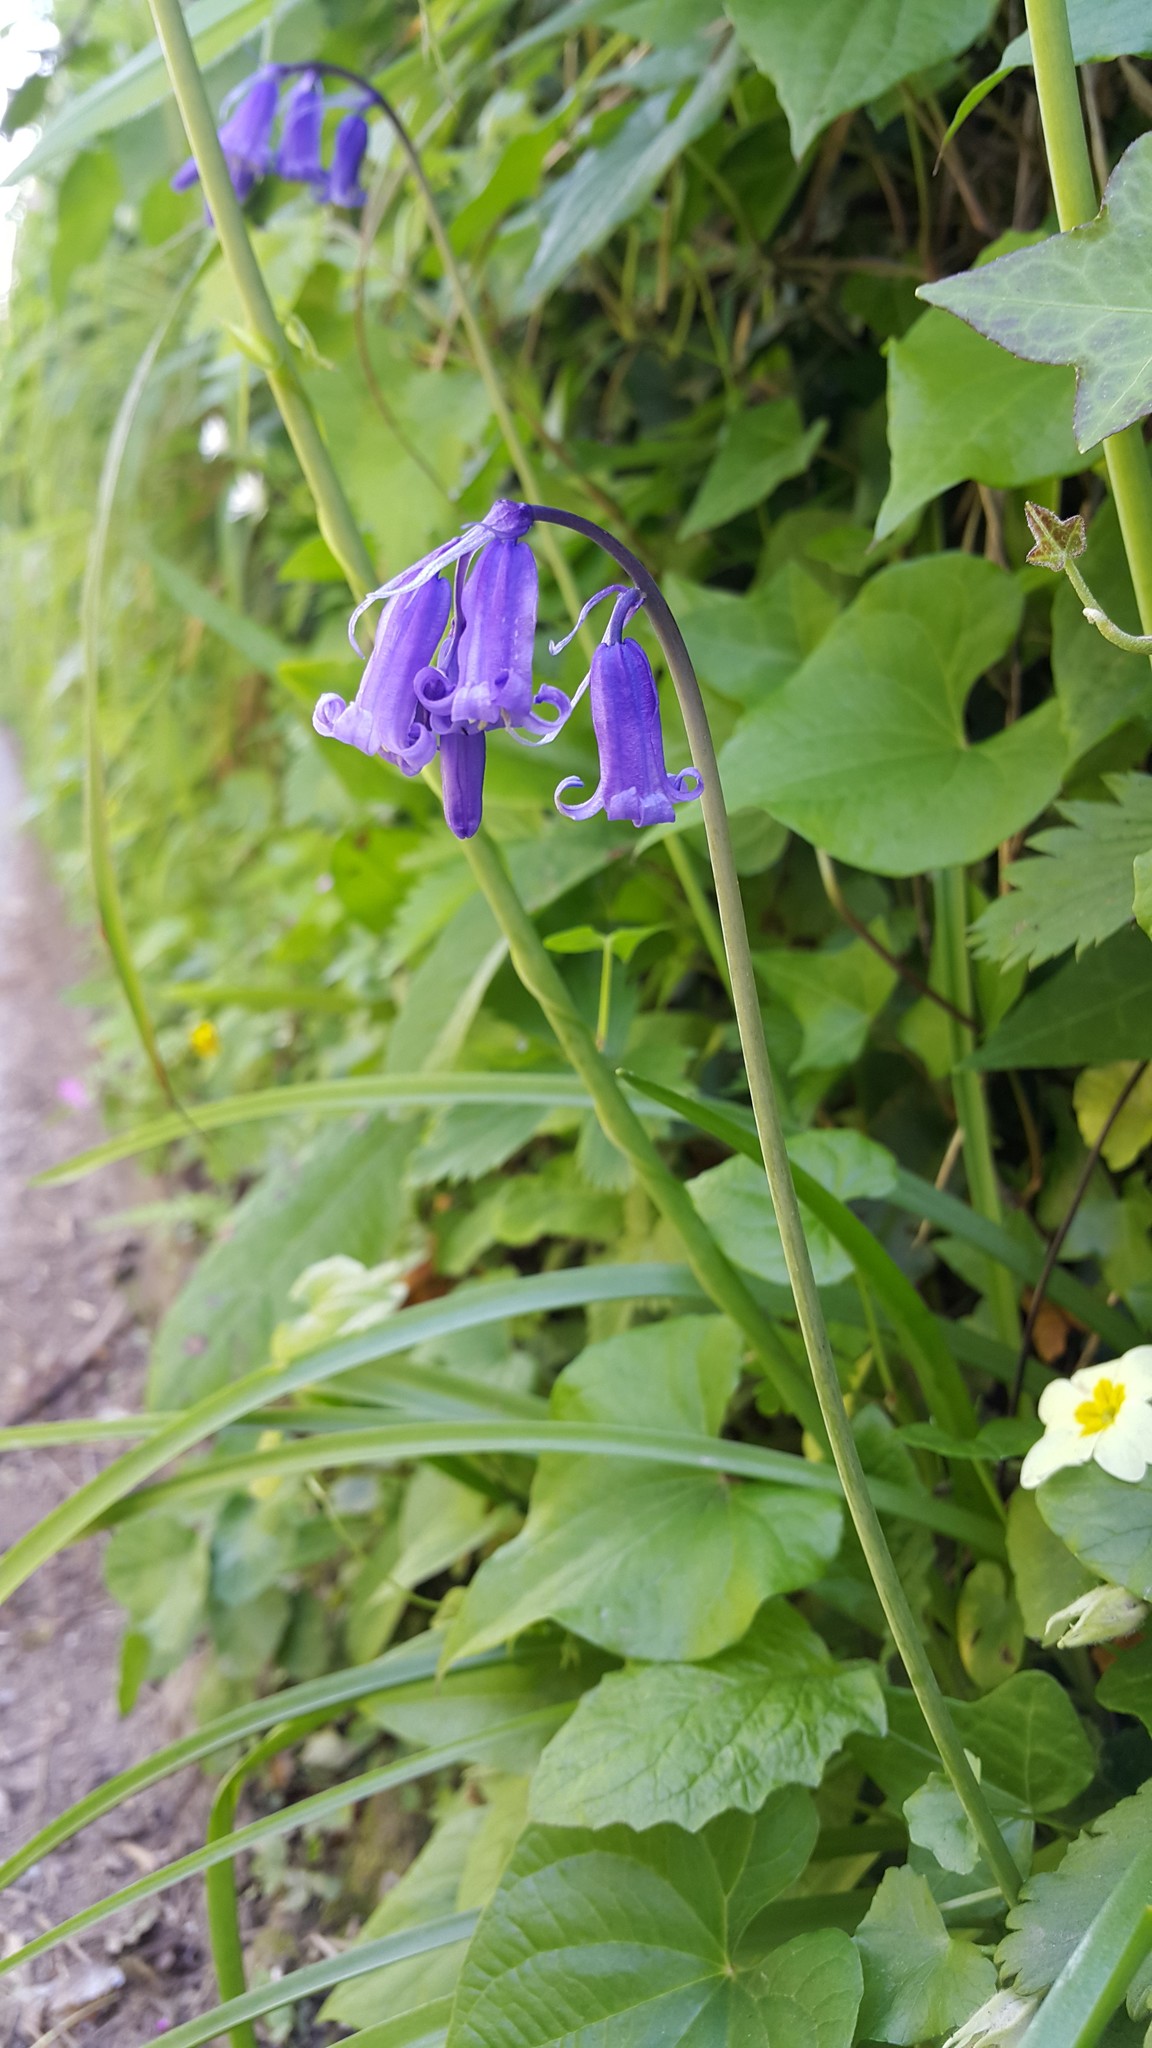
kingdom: Plantae
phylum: Tracheophyta
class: Liliopsida
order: Asparagales
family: Asparagaceae
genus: Hyacinthoides
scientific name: Hyacinthoides non-scripta
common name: Bluebell
